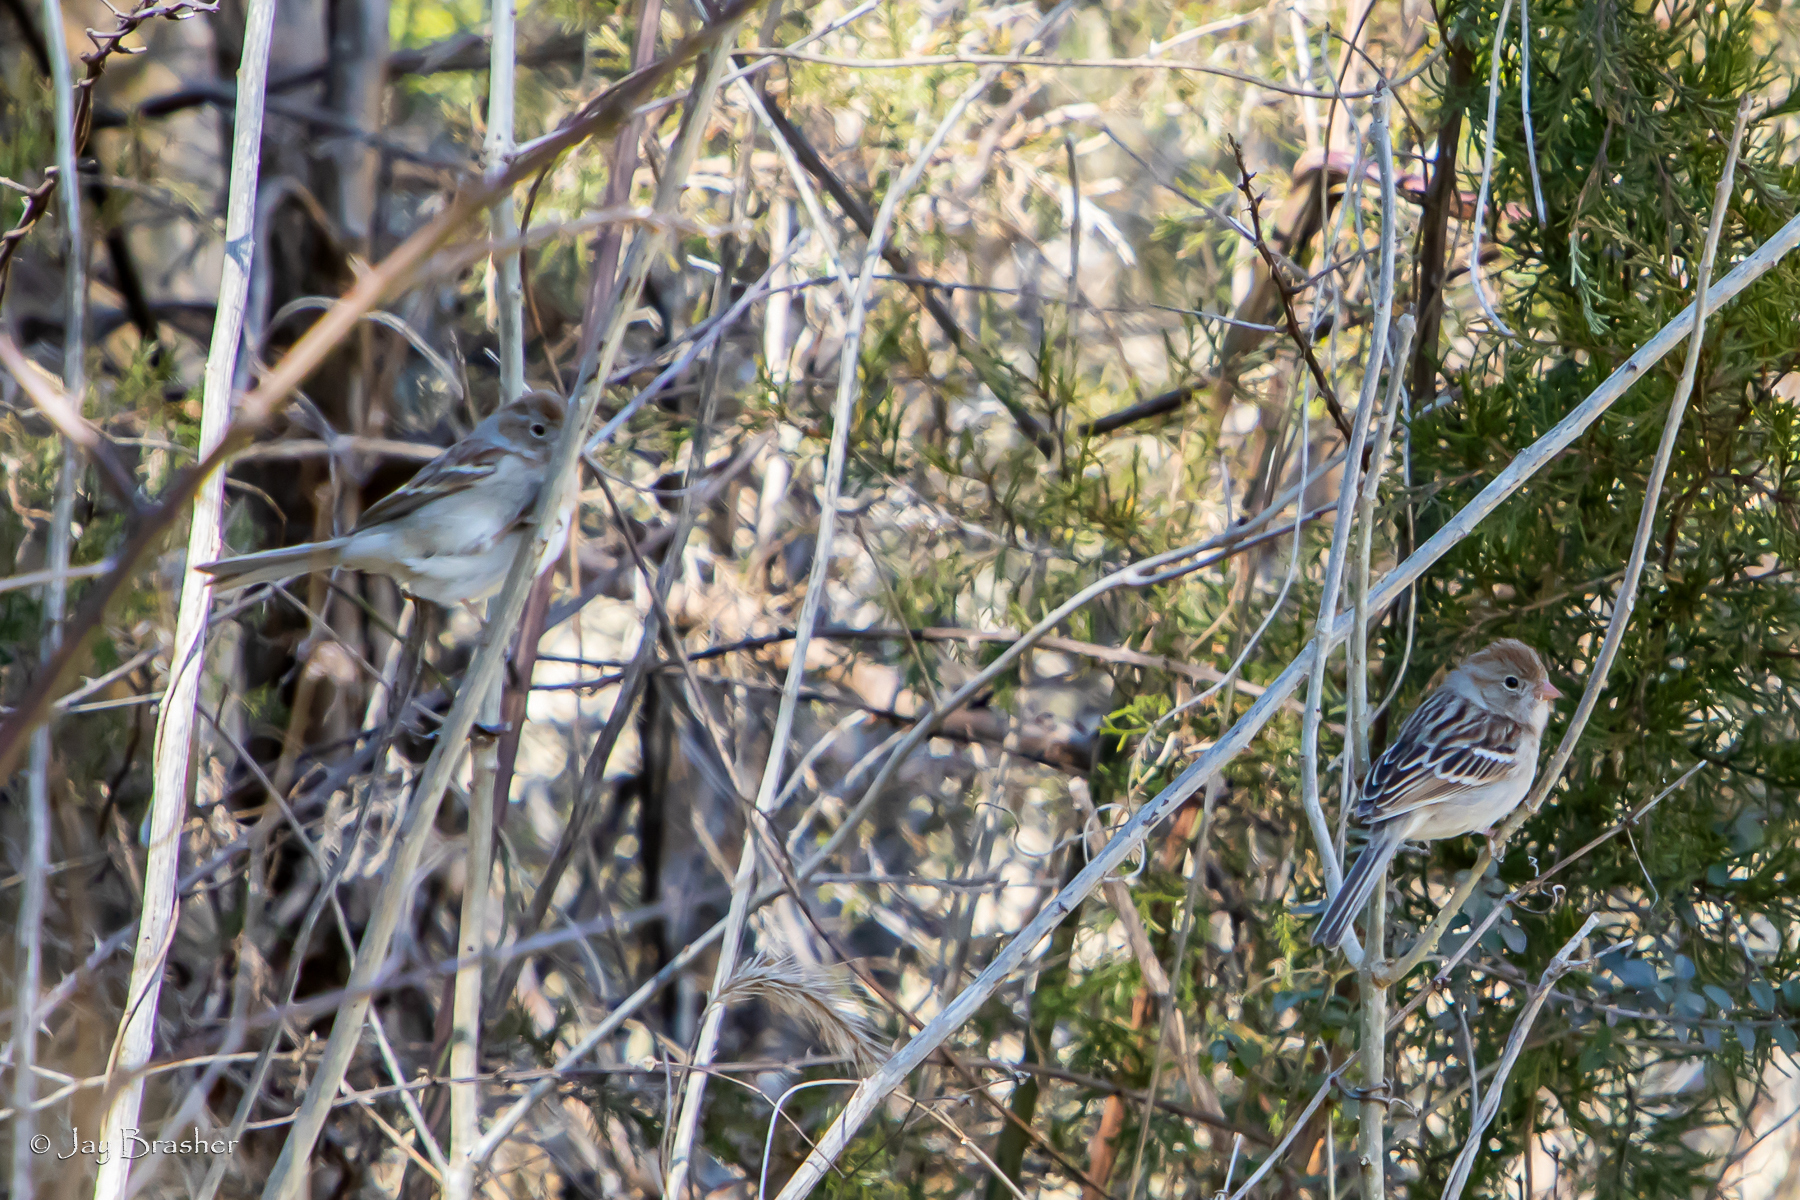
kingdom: Animalia
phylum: Chordata
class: Aves
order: Passeriformes
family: Passerellidae
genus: Spizella
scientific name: Spizella pusilla
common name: Field sparrow
